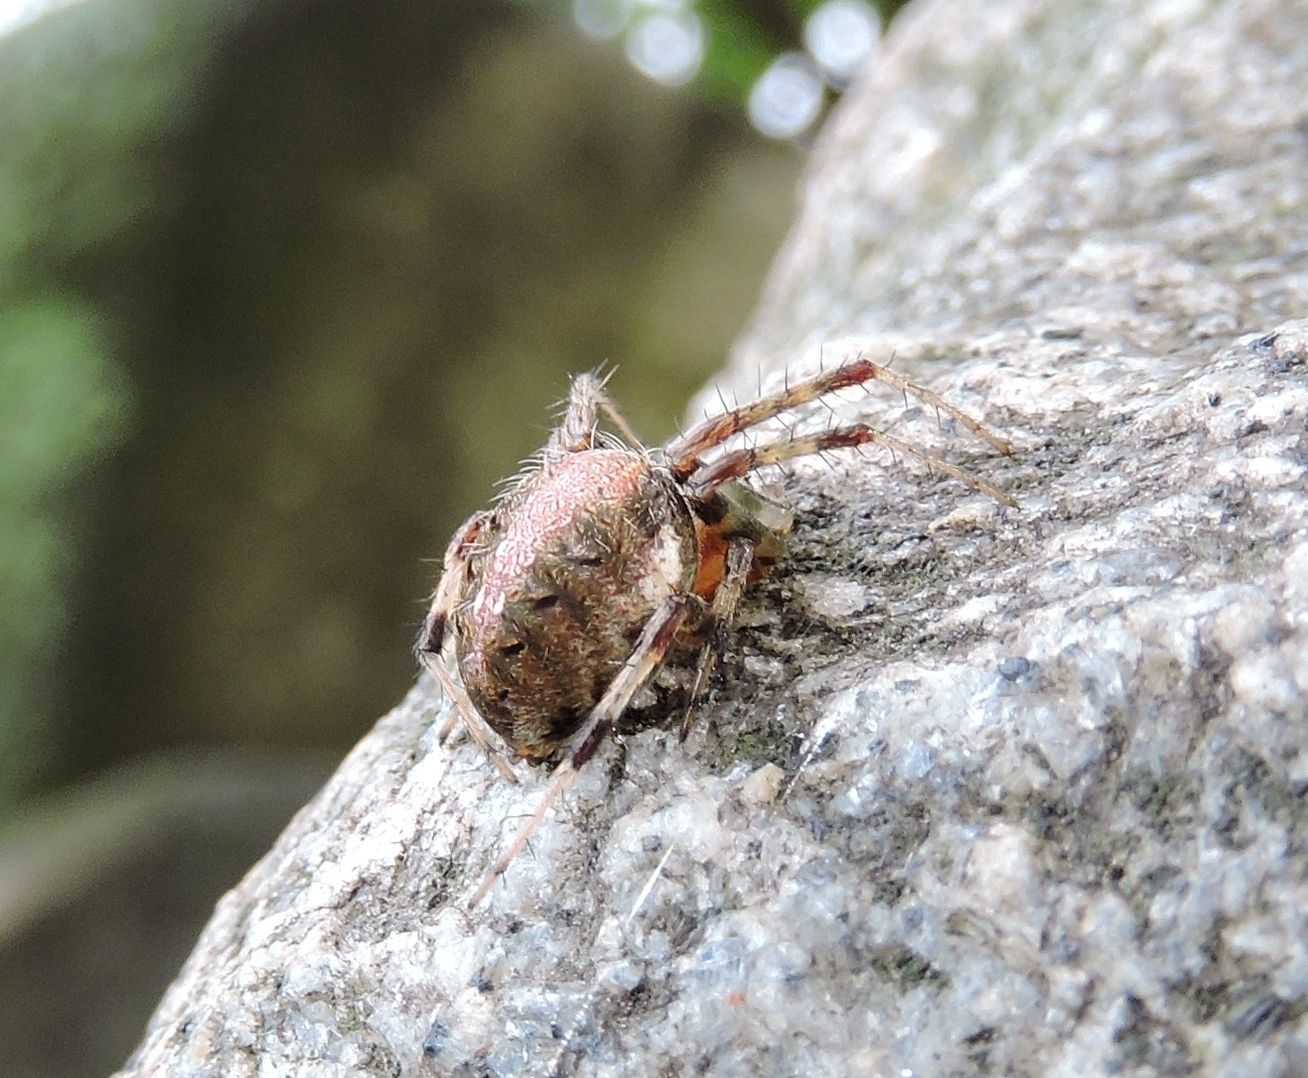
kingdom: Animalia
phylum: Arthropoda
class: Arachnida
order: Araneae
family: Araneidae
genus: Neoscona
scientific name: Neoscona arabesca
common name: Orb weavers
